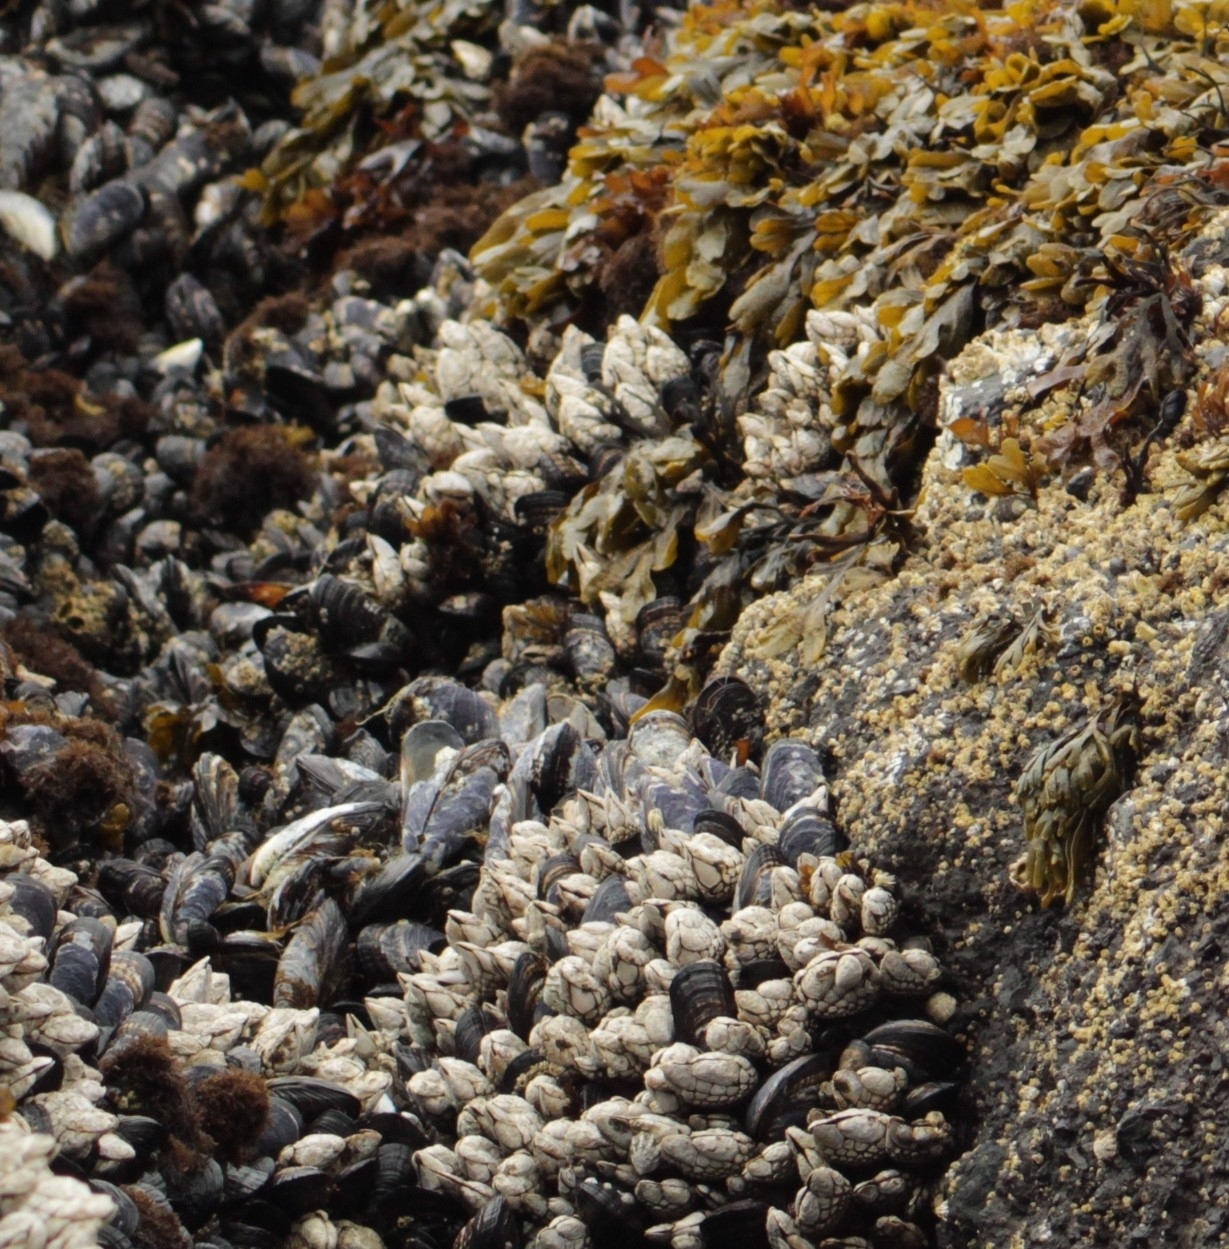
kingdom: Animalia
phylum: Mollusca
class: Bivalvia
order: Mytilida
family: Mytilidae
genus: Mytilus
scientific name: Mytilus californianus
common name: California mussel
